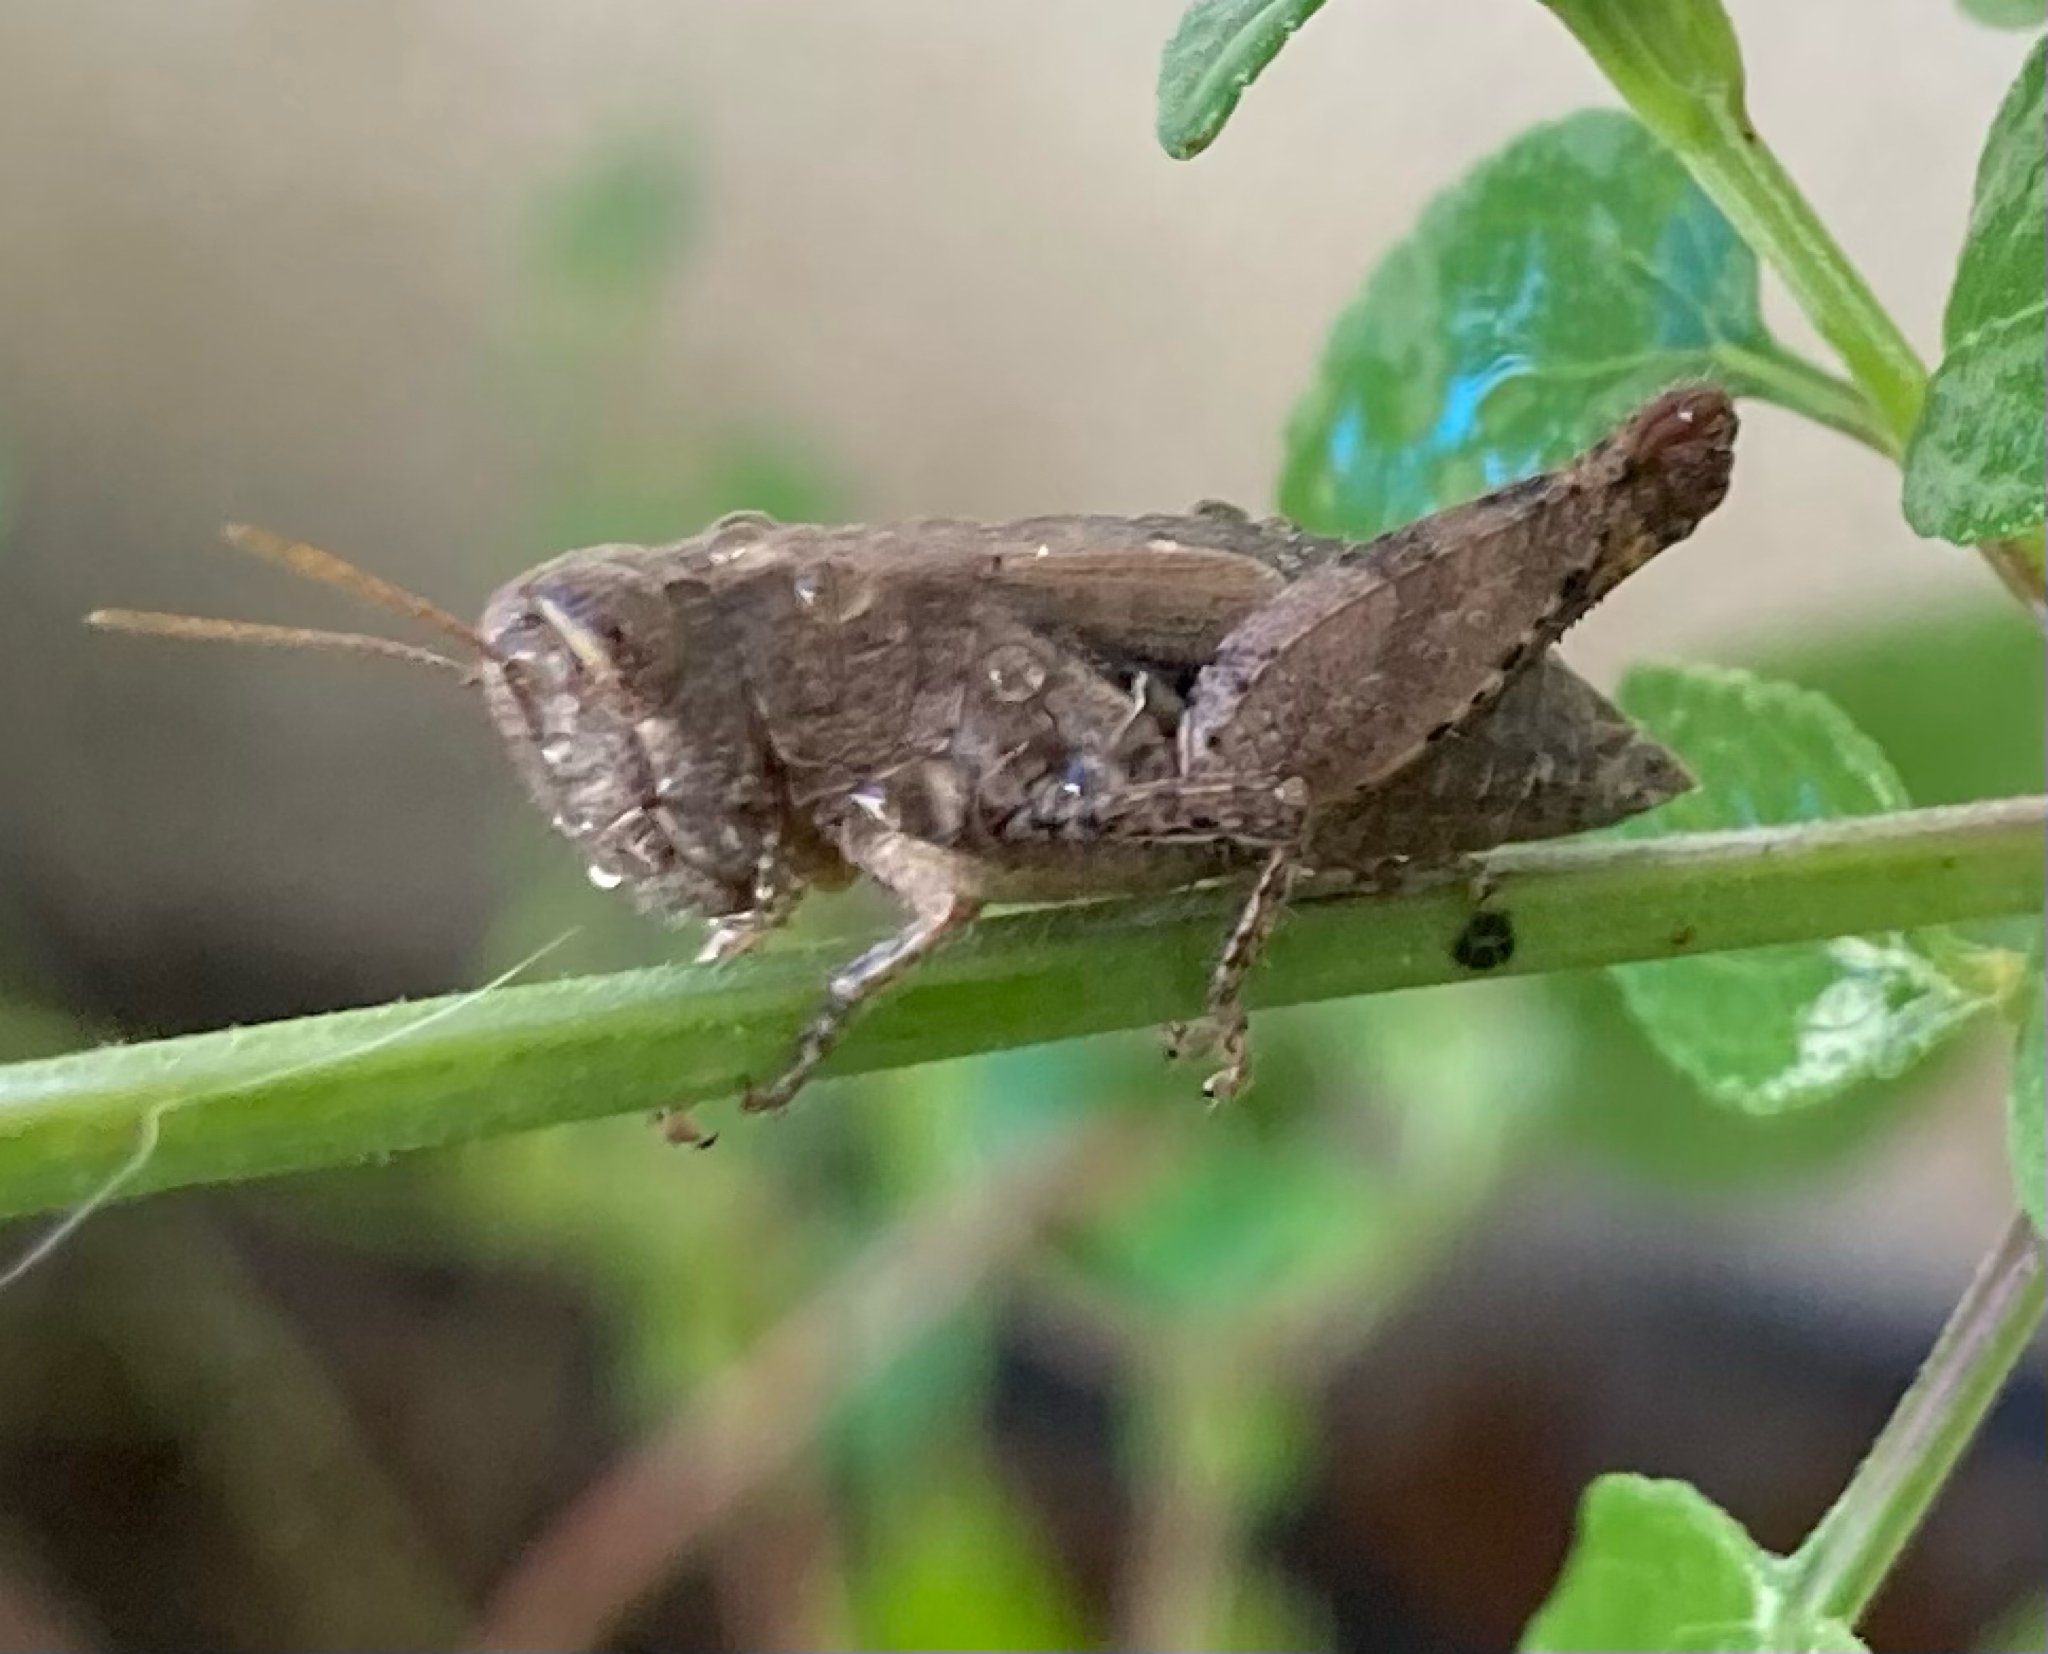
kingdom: Animalia
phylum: Arthropoda
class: Insecta
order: Orthoptera
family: Acrididae
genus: Pezotettix
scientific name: Pezotettix giornae
